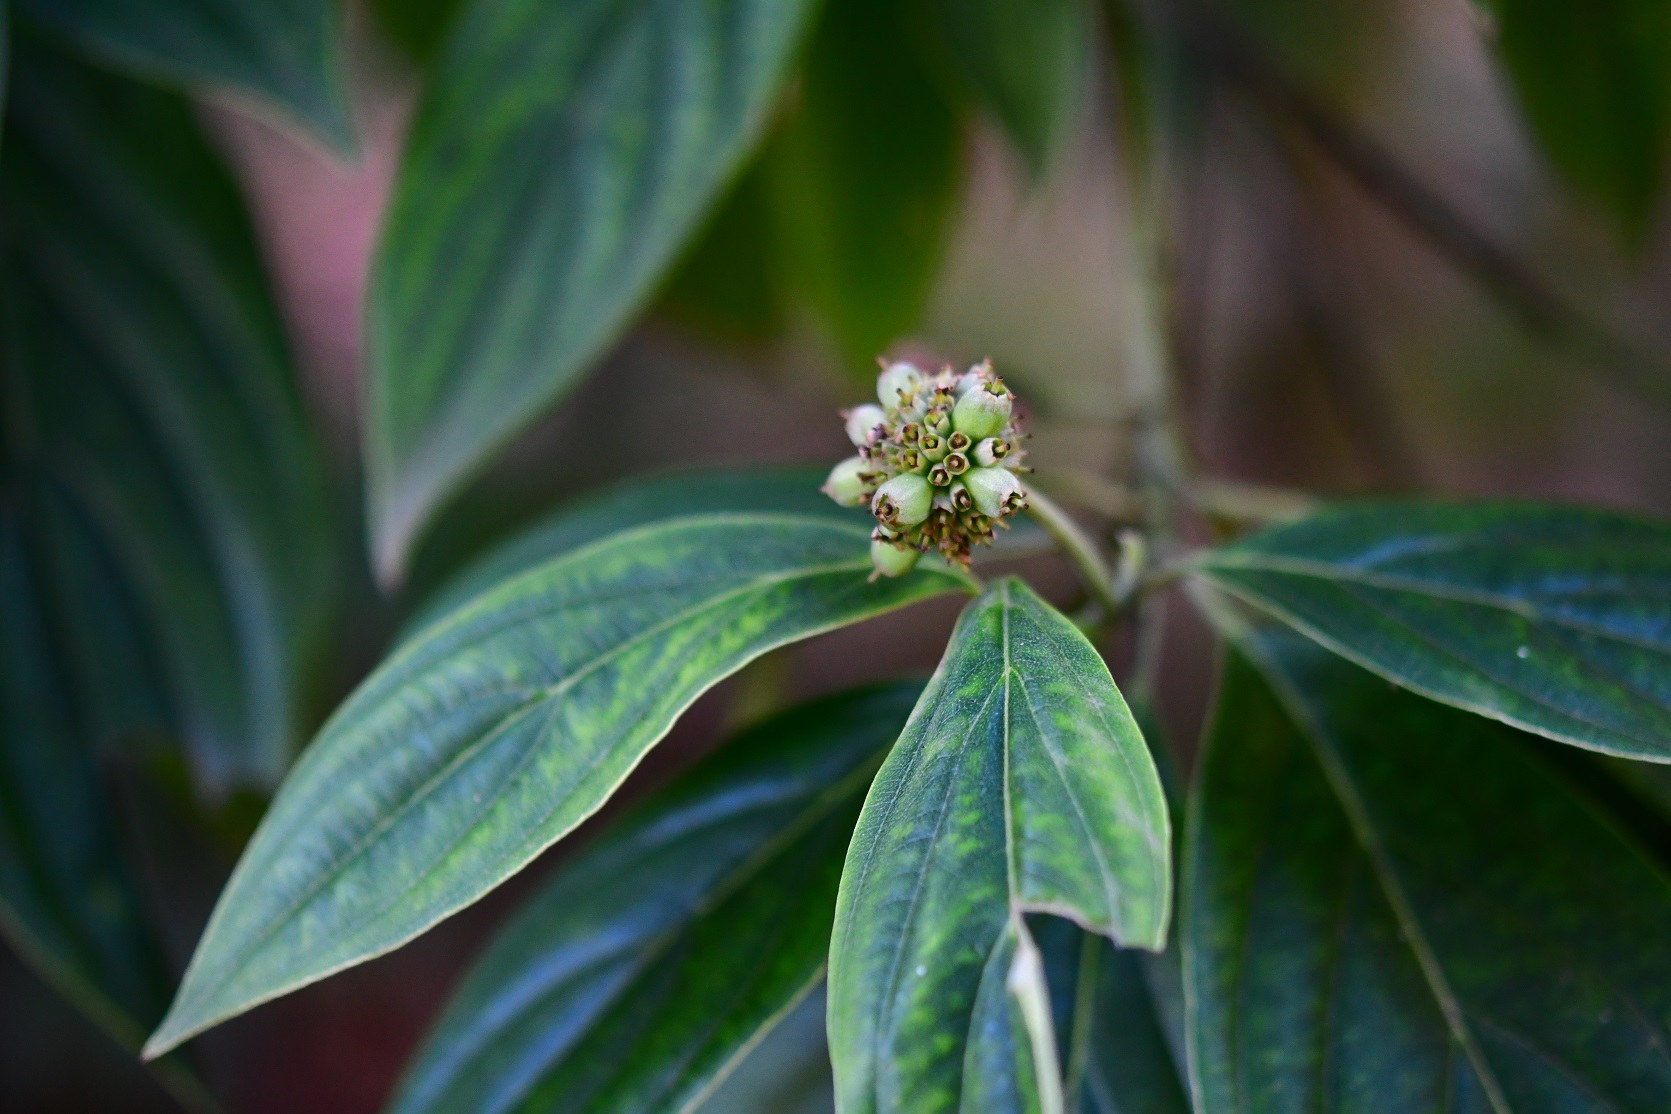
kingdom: Plantae
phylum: Tracheophyta
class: Magnoliopsida
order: Cornales
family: Cornaceae
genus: Cornus
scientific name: Cornus disciflora
